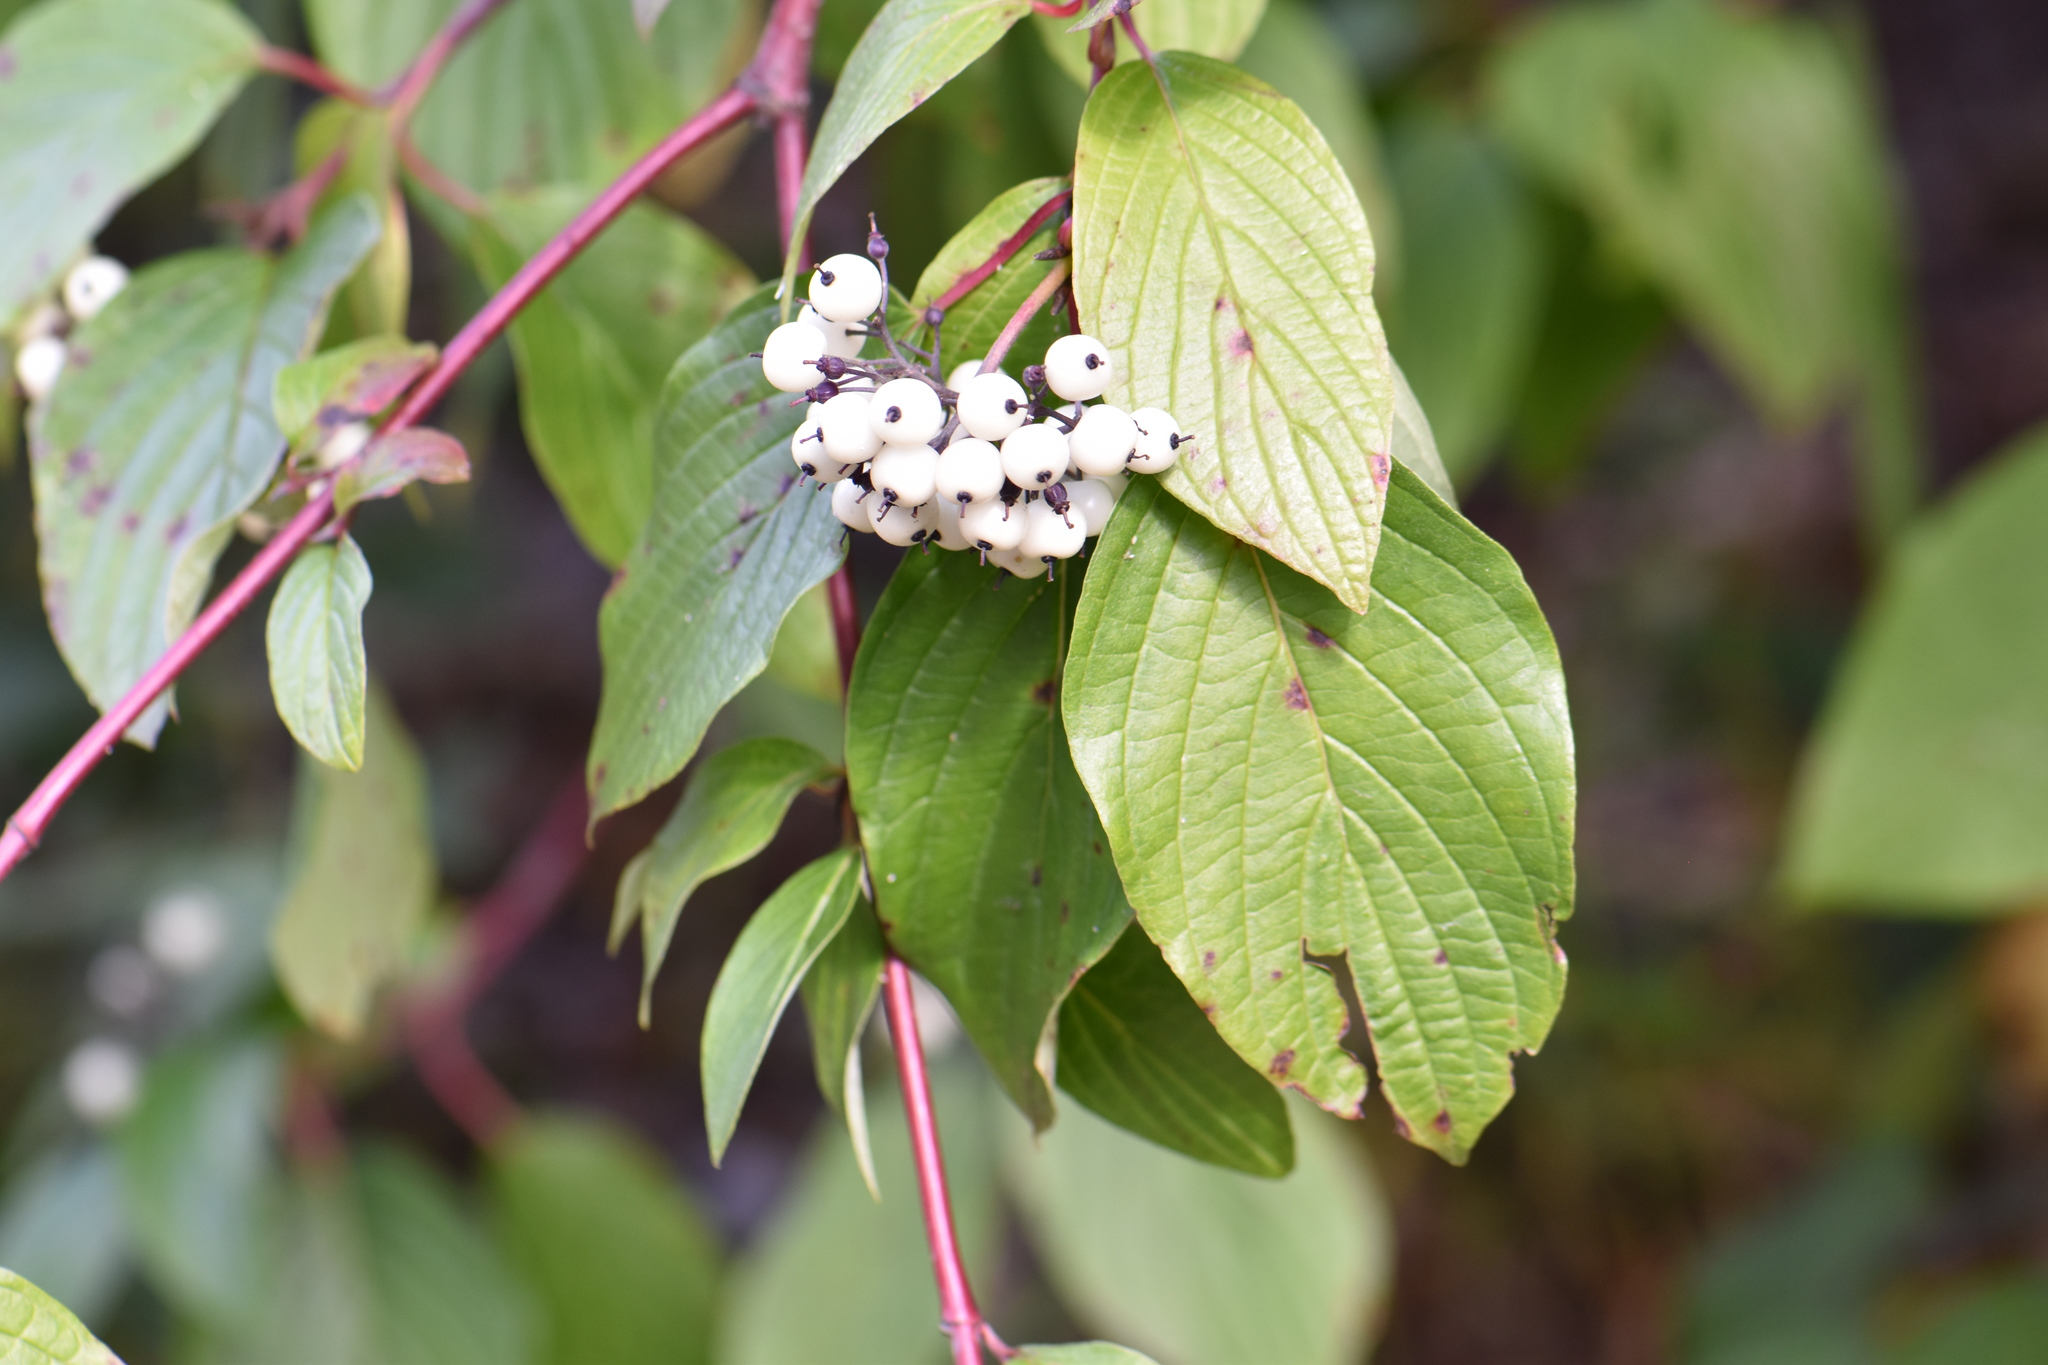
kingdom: Plantae
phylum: Tracheophyta
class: Magnoliopsida
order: Cornales
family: Cornaceae
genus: Cornus
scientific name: Cornus sericea
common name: Red-osier dogwood
